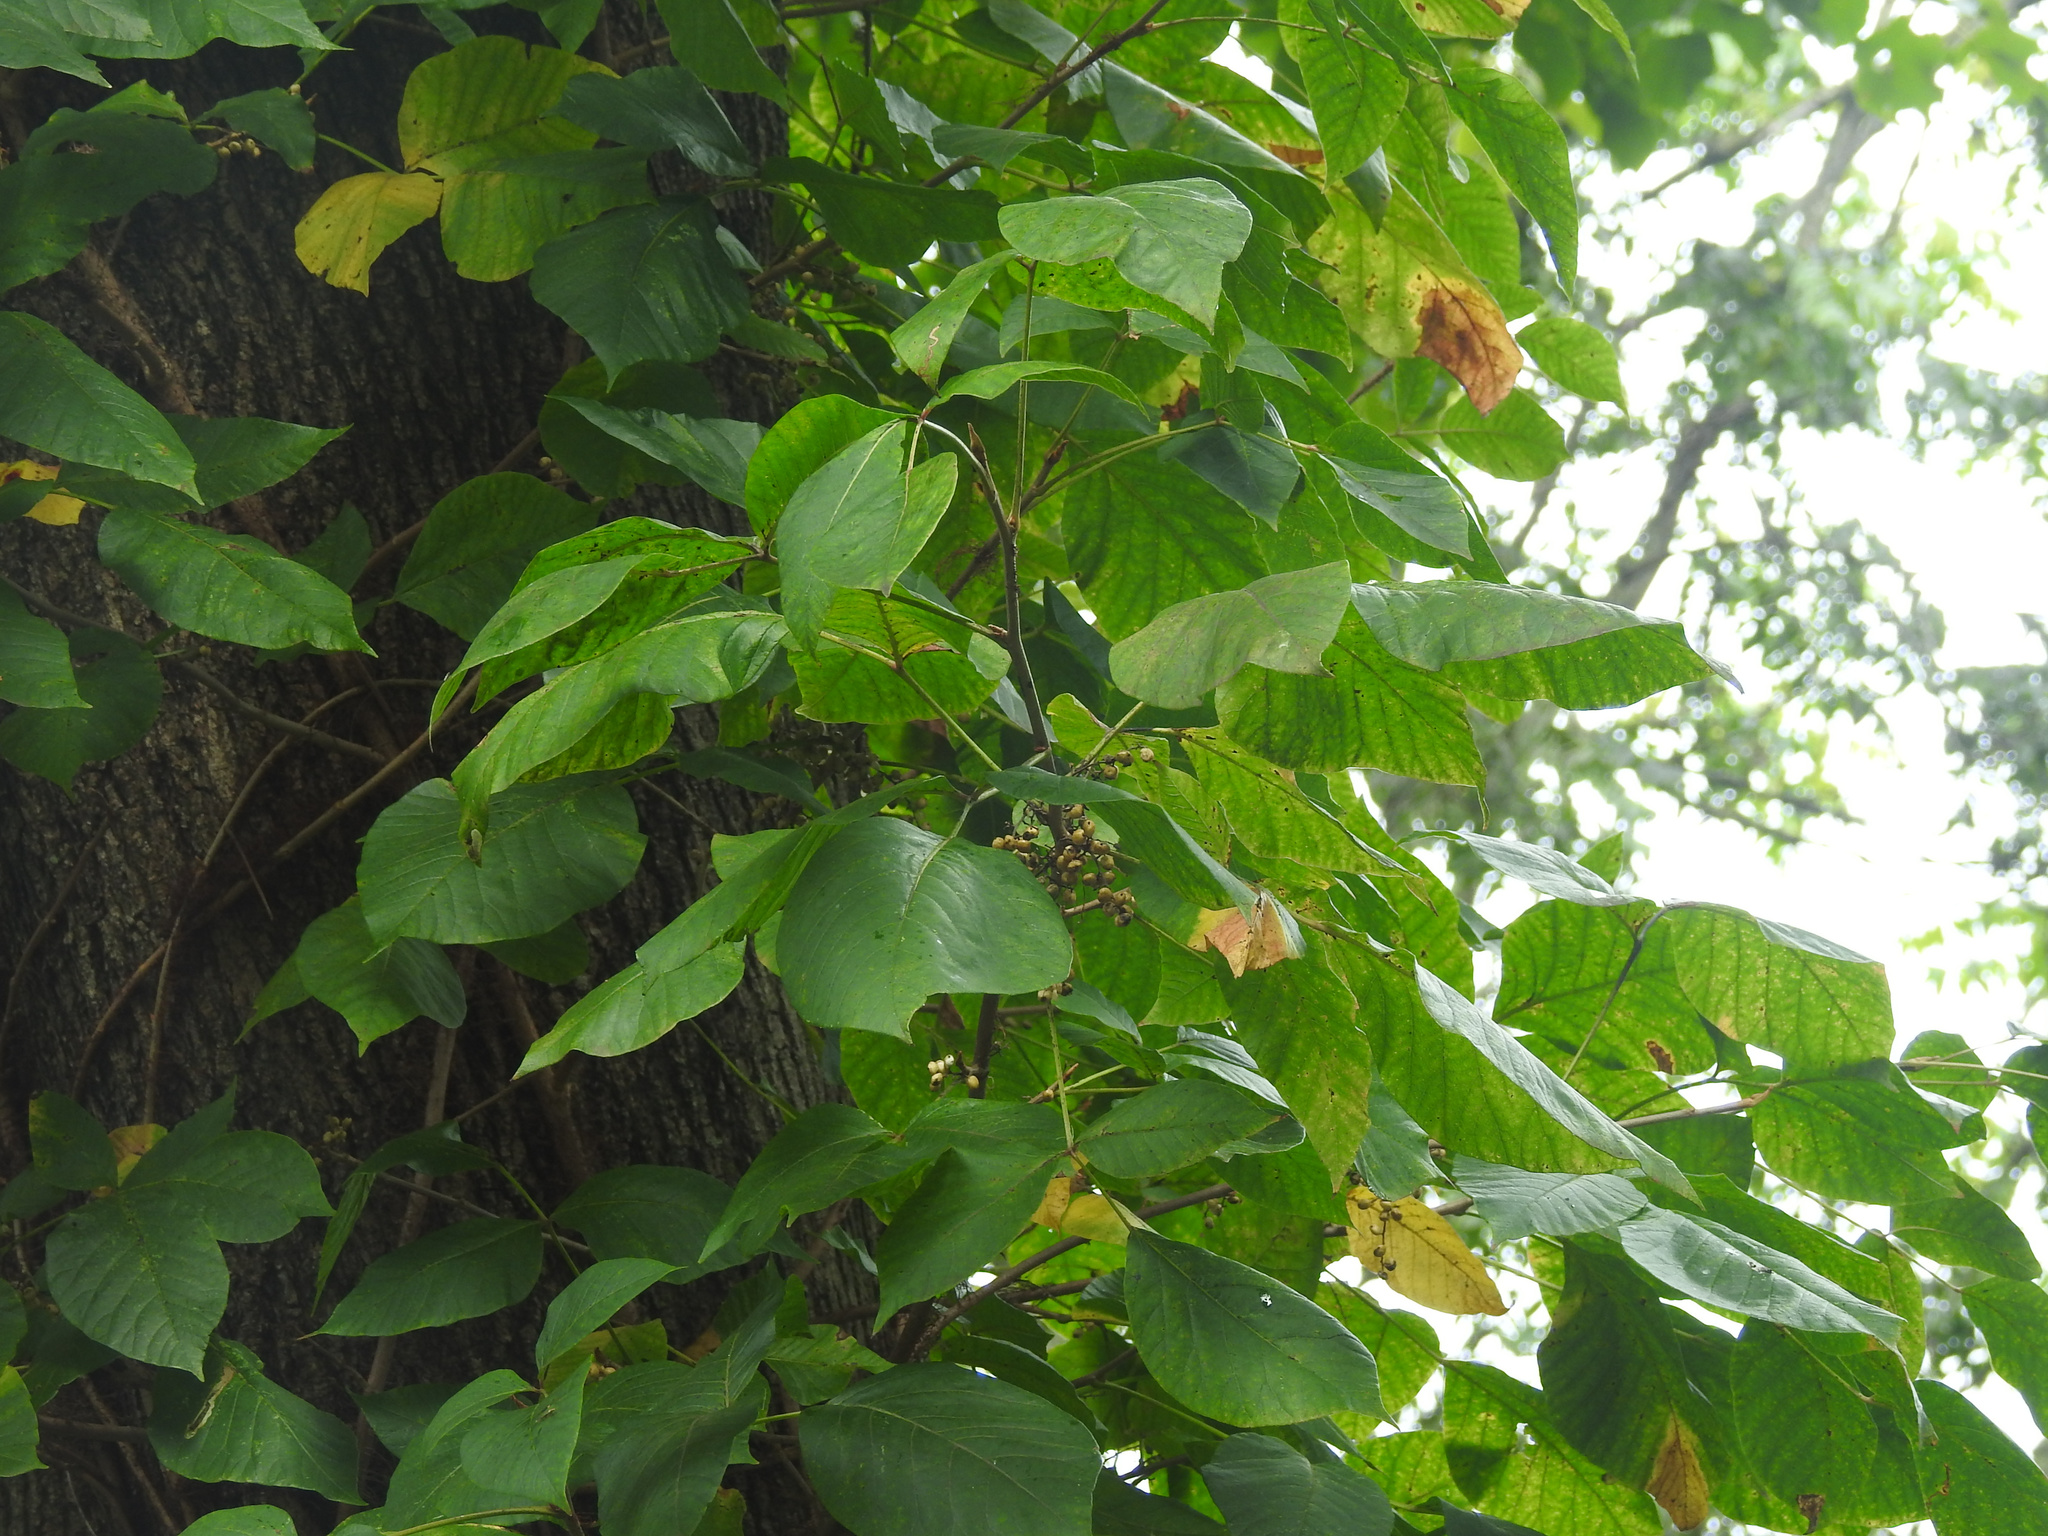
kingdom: Plantae
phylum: Tracheophyta
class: Magnoliopsida
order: Sapindales
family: Anacardiaceae
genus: Toxicodendron
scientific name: Toxicodendron radicans
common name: Poison ivy
